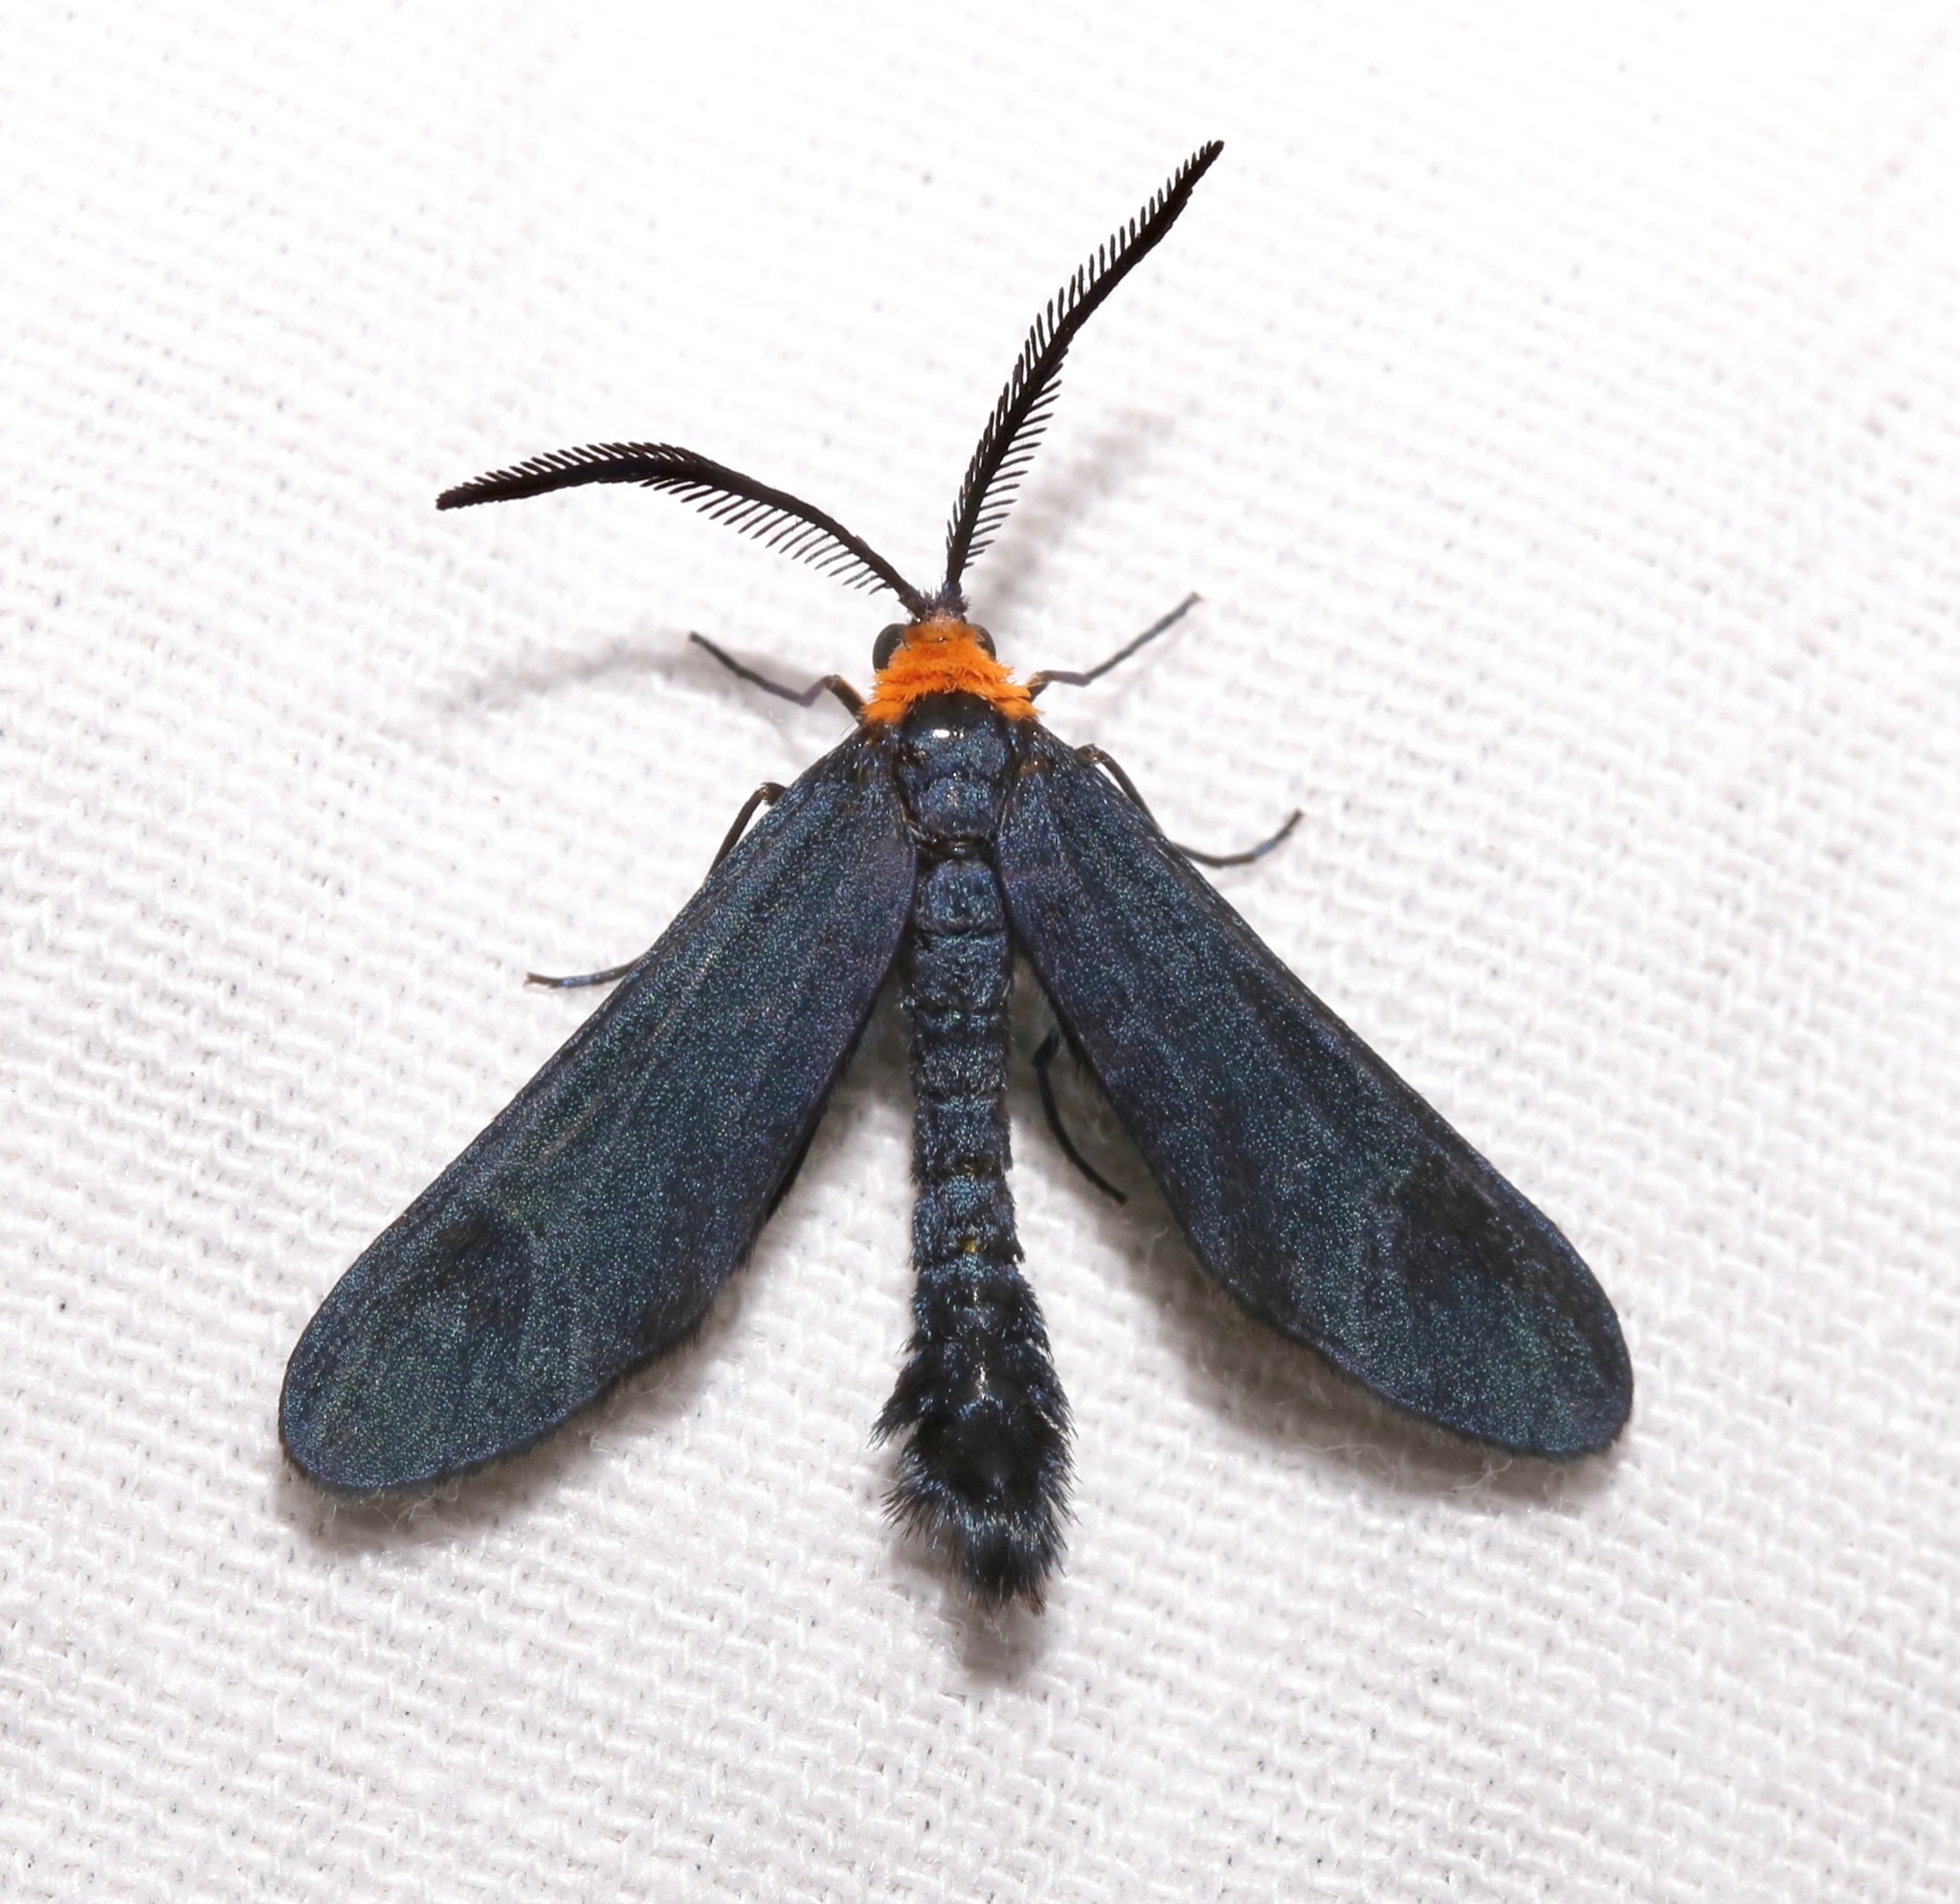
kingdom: Animalia
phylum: Arthropoda
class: Insecta
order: Lepidoptera
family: Zygaenidae
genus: Harrisina
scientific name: Harrisina americana
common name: Grapeleaf skeletonizer moth
